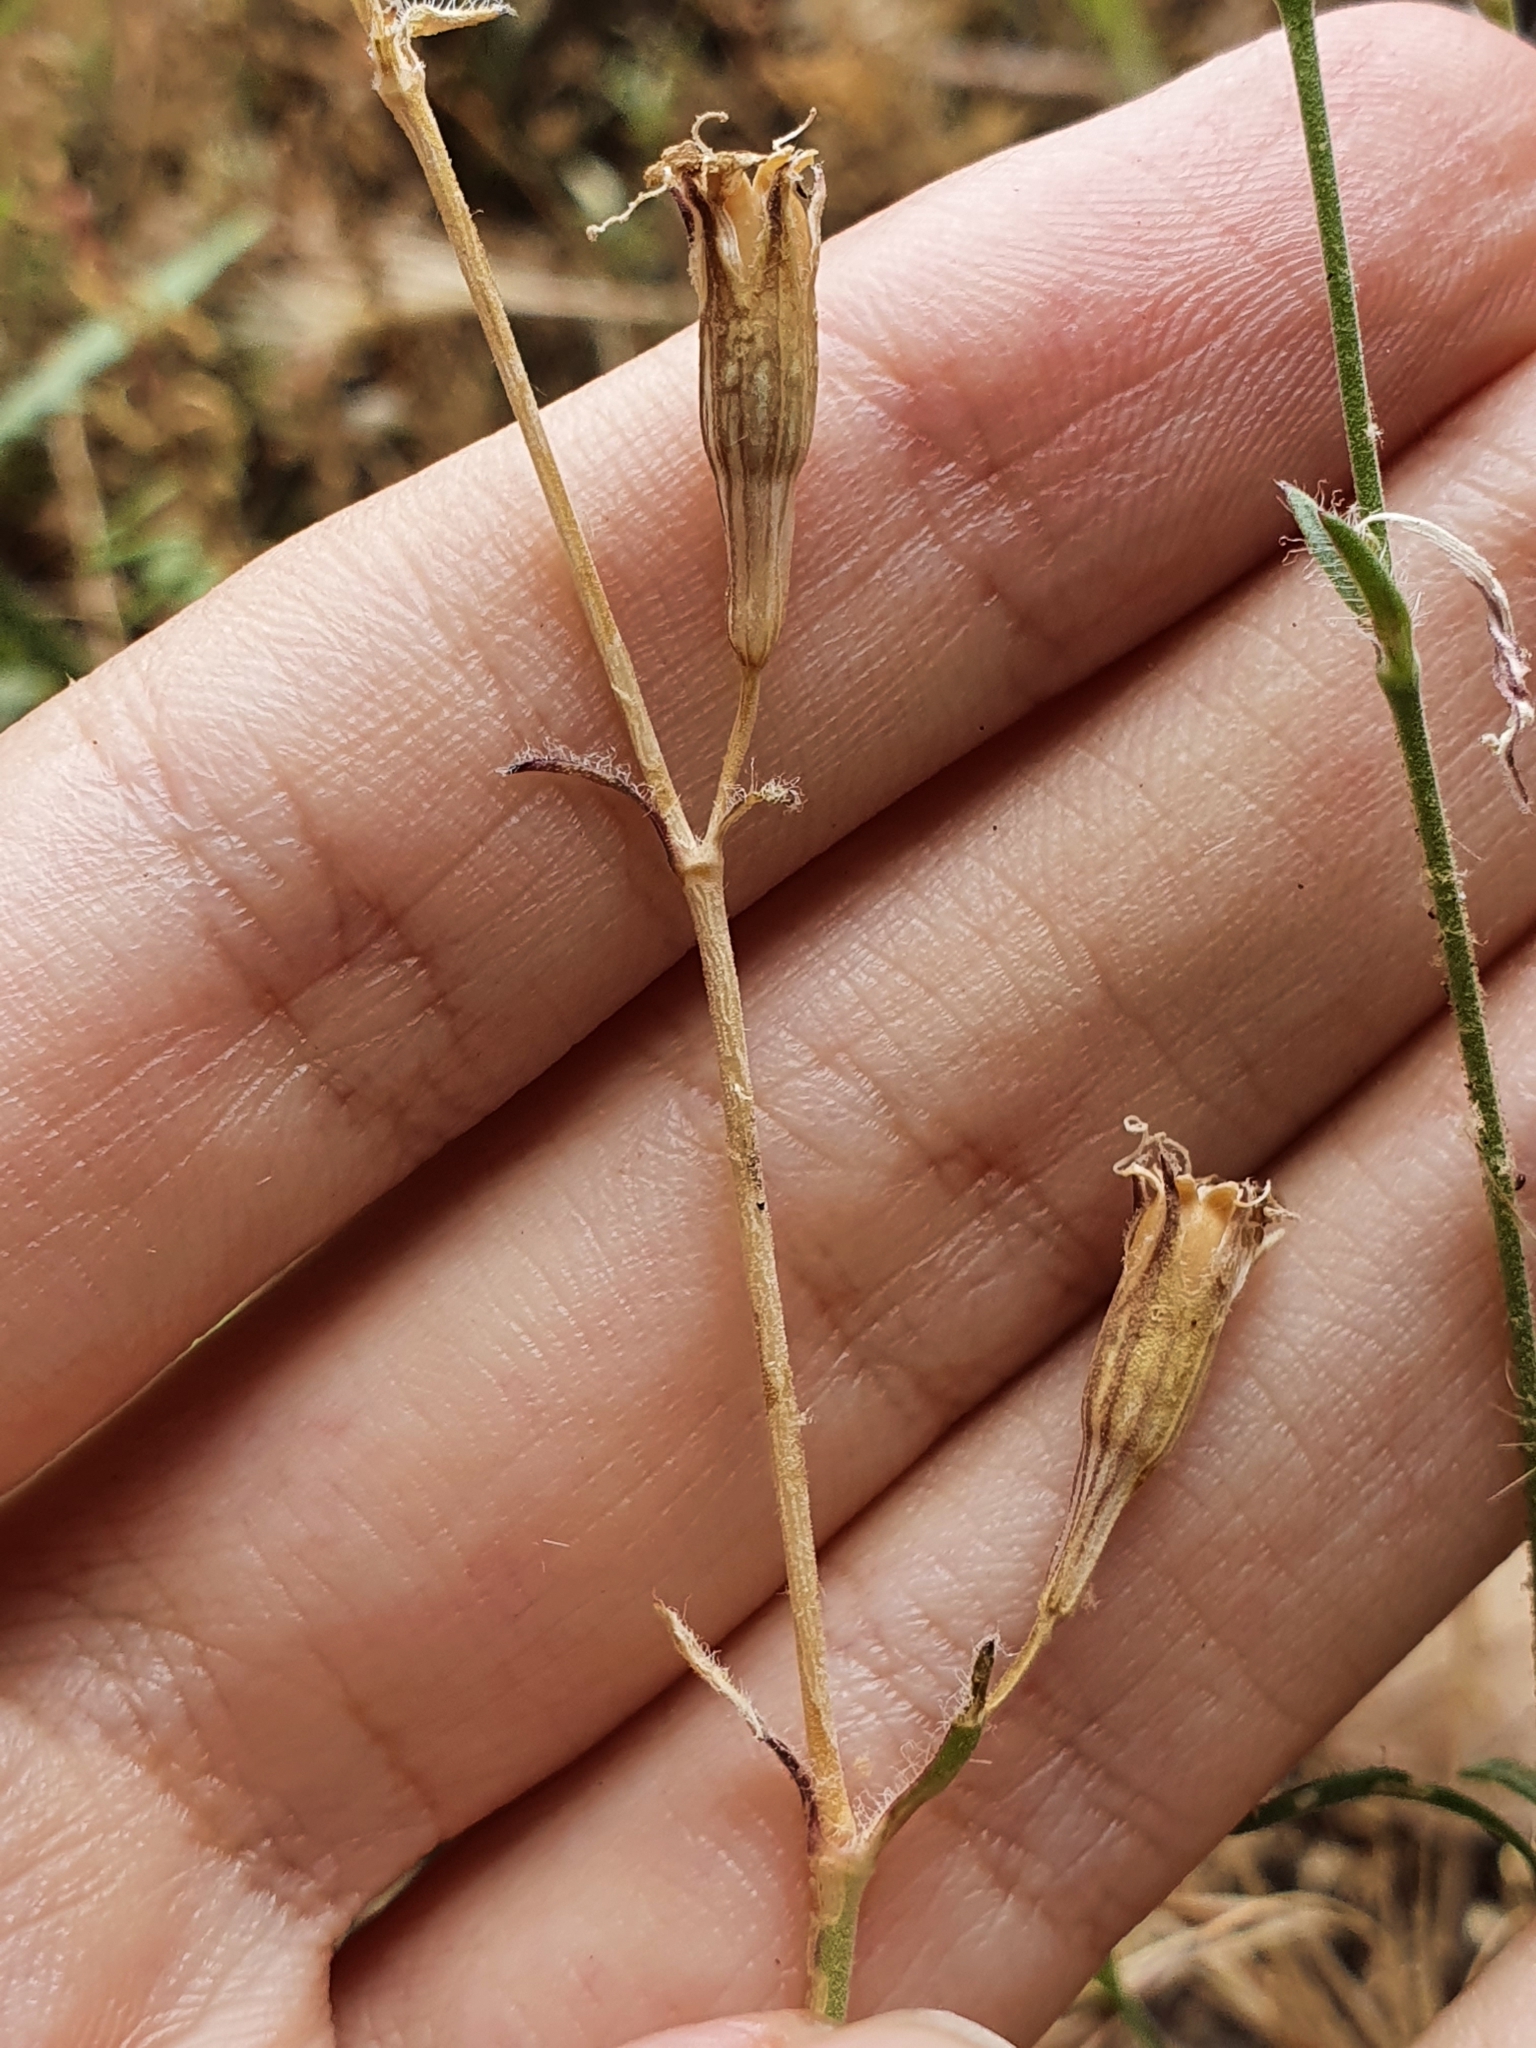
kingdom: Plantae
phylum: Tracheophyta
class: Magnoliopsida
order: Caryophyllales
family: Caryophyllaceae
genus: Silene
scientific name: Silene imbricata
